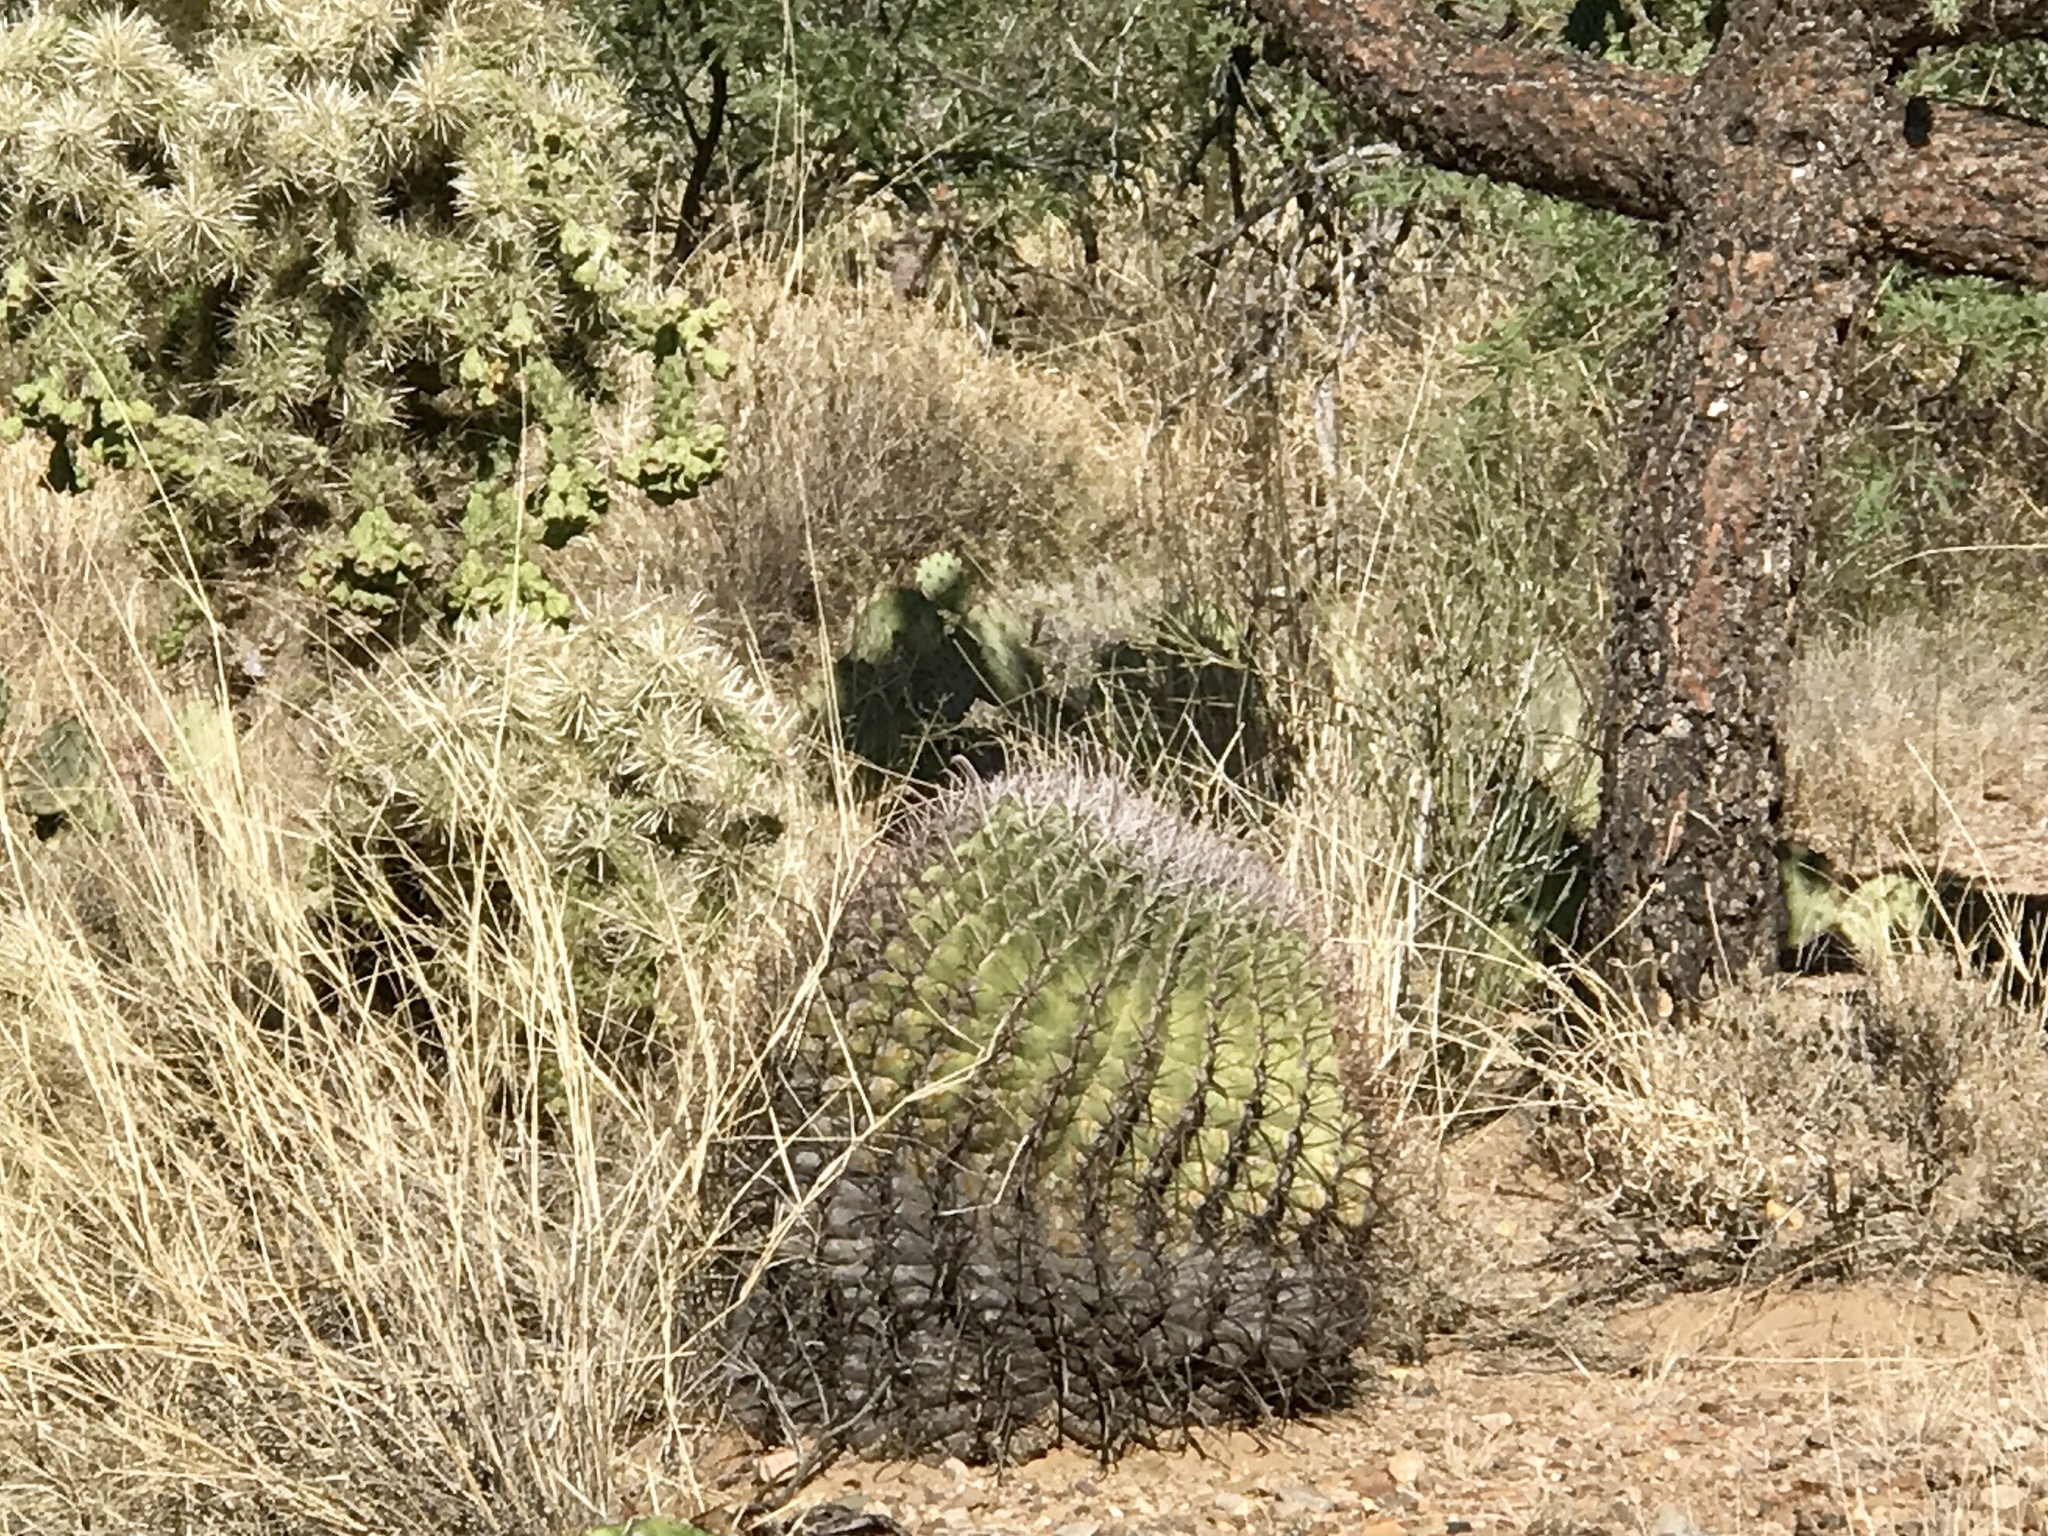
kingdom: Plantae
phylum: Tracheophyta
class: Magnoliopsida
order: Caryophyllales
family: Cactaceae
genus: Ferocactus
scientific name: Ferocactus wislizeni
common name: Candy barrel cactus
